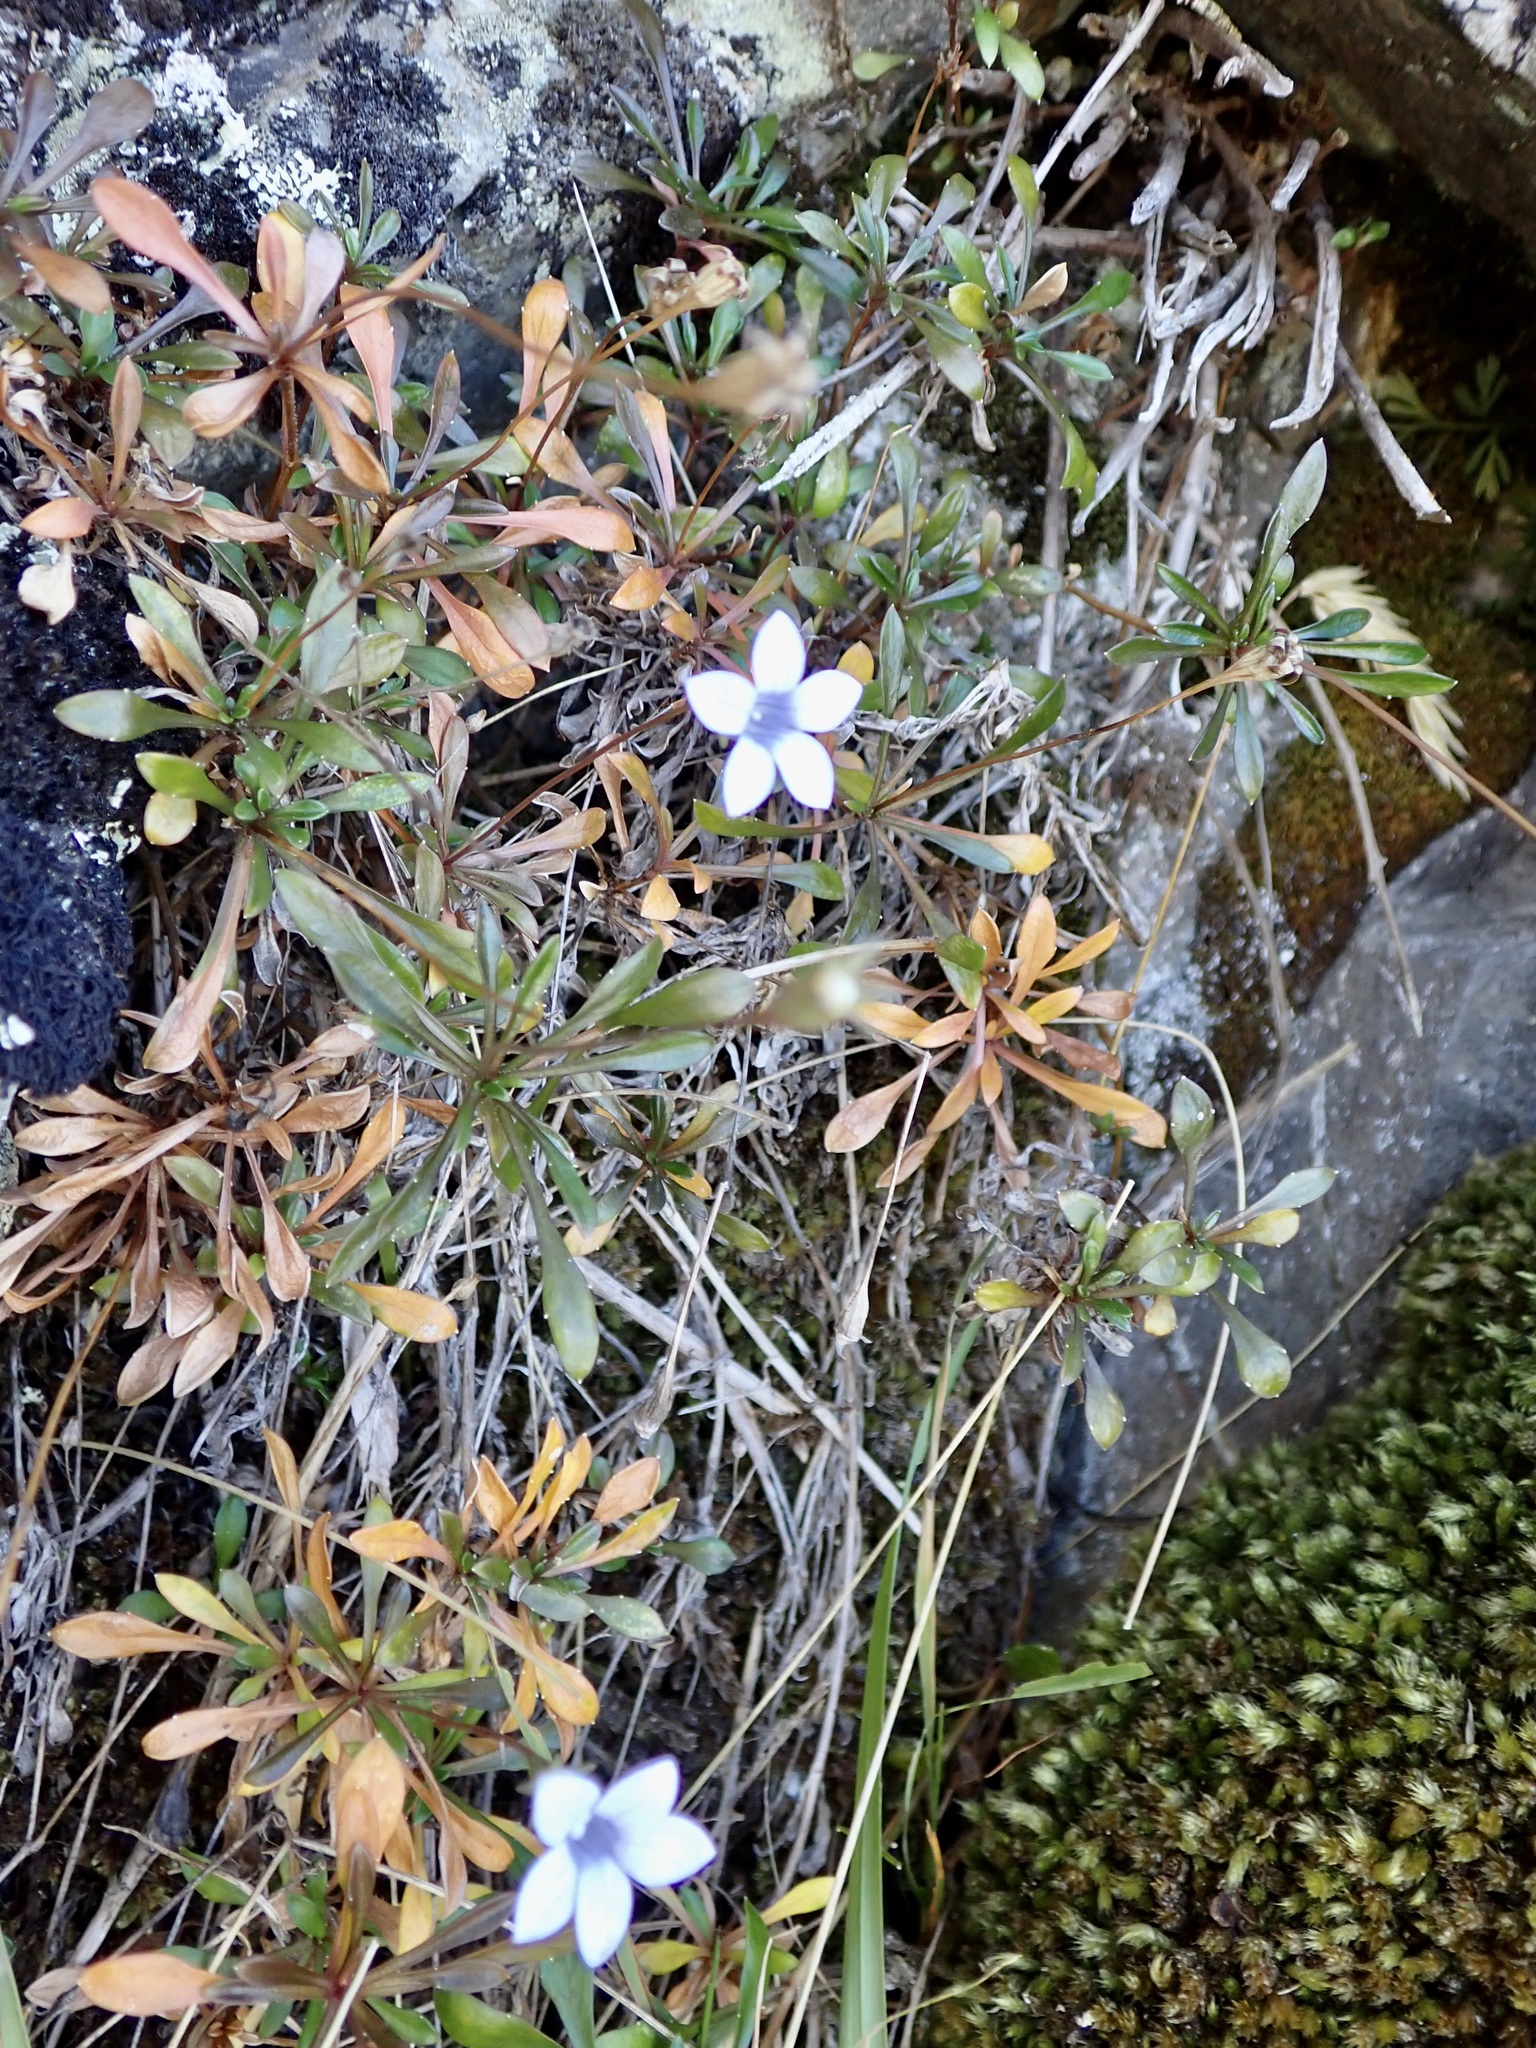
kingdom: Plantae
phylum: Tracheophyta
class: Magnoliopsida
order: Asterales
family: Campanulaceae
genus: Wahlenbergia
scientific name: Wahlenbergia albomarginata
